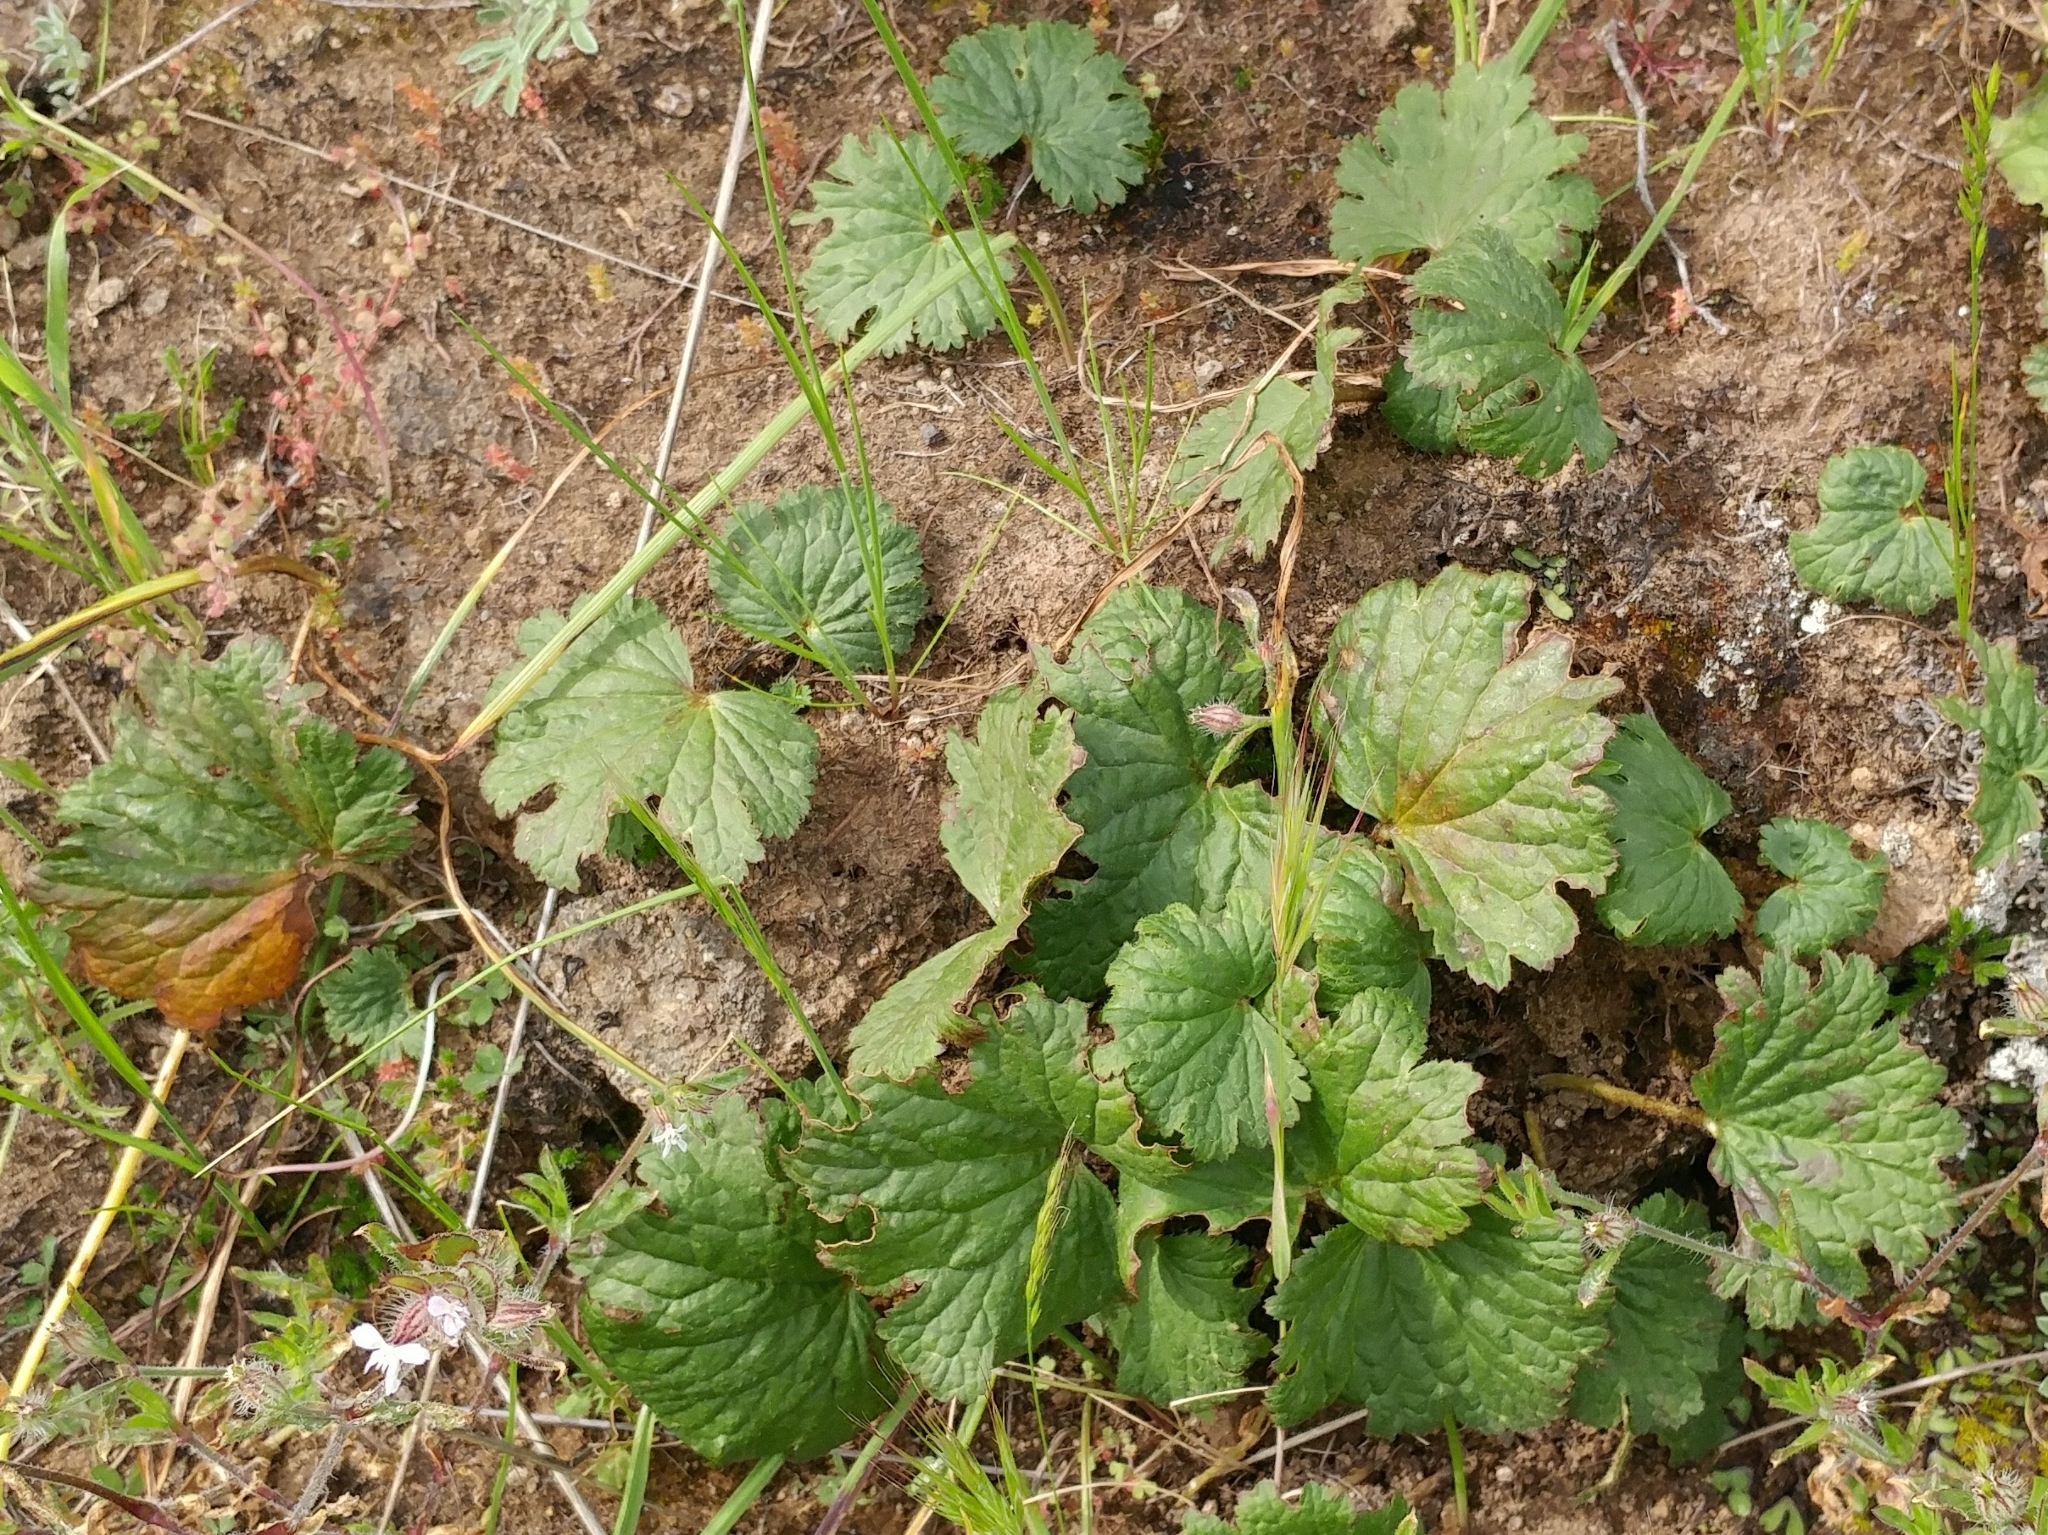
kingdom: Plantae
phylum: Tracheophyta
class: Magnoliopsida
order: Saxifragales
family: Saxifragaceae
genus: Jepsonia
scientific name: Jepsonia malvifolia
